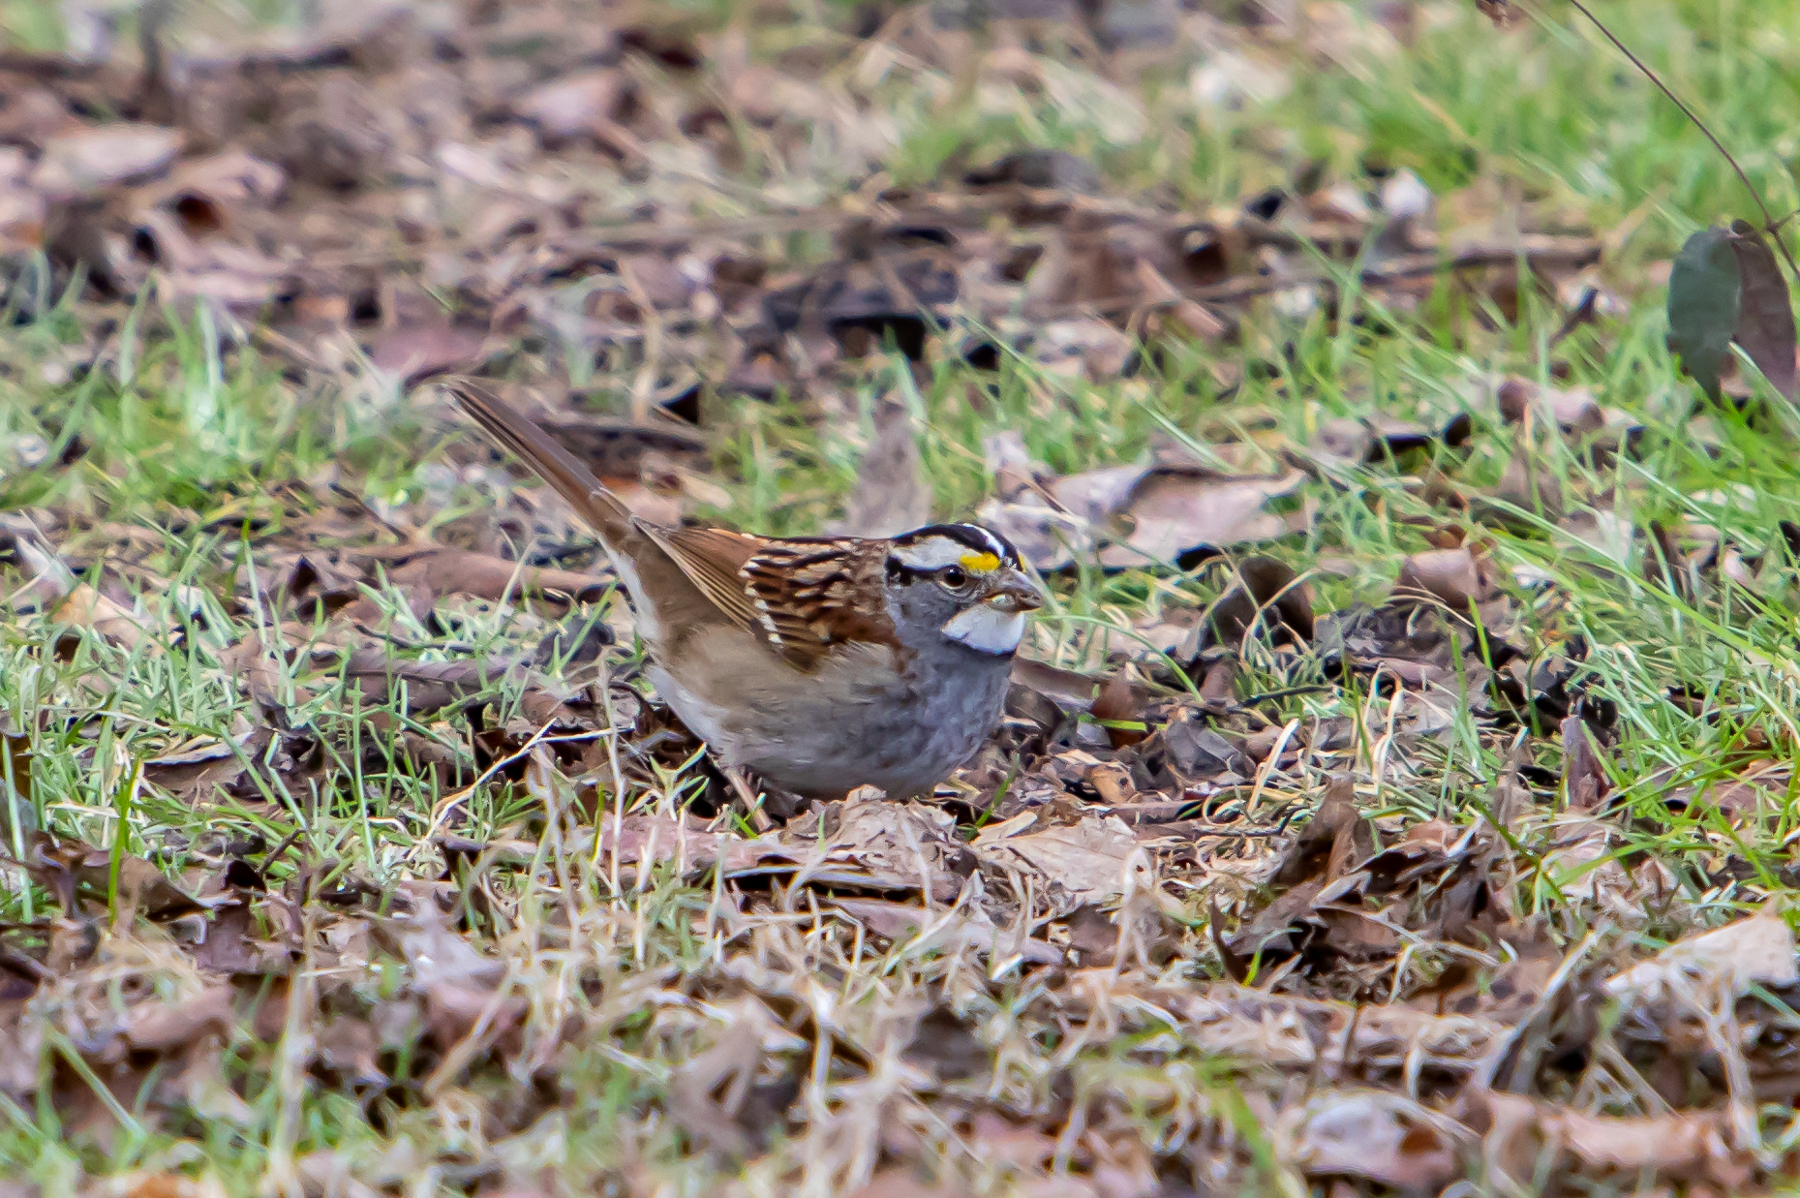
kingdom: Animalia
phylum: Chordata
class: Aves
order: Passeriformes
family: Passerellidae
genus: Zonotrichia
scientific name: Zonotrichia albicollis
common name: White-throated sparrow
